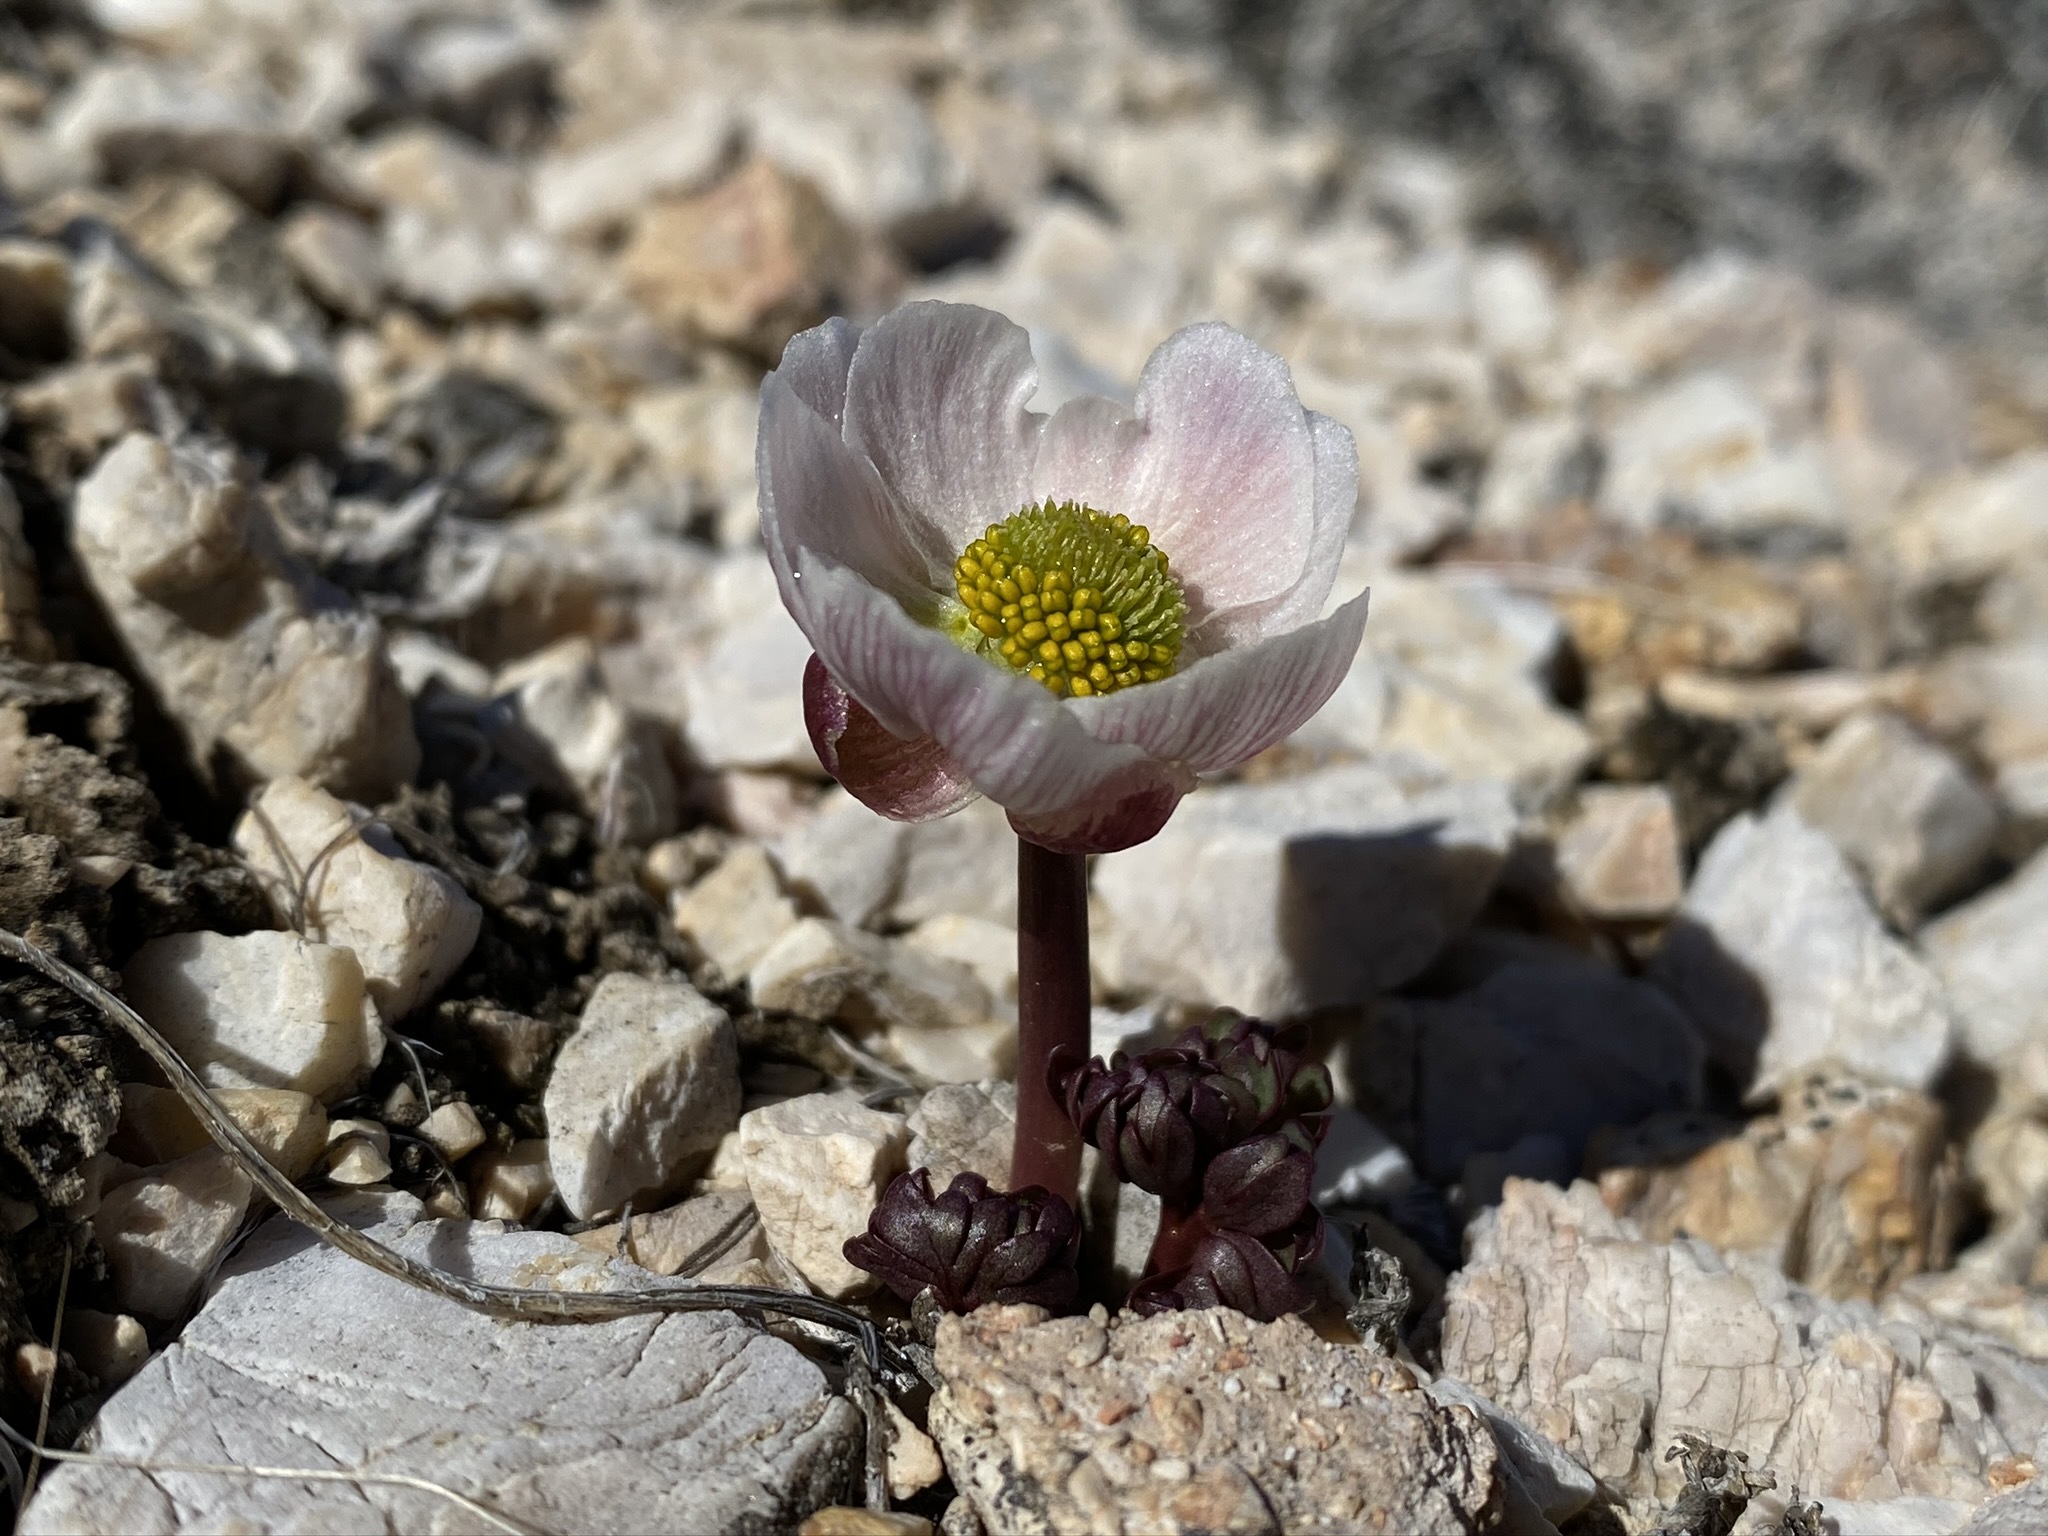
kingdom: Plantae
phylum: Tracheophyta
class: Magnoliopsida
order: Ranunculales
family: Ranunculaceae
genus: Beckwithia
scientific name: Beckwithia andersonii
